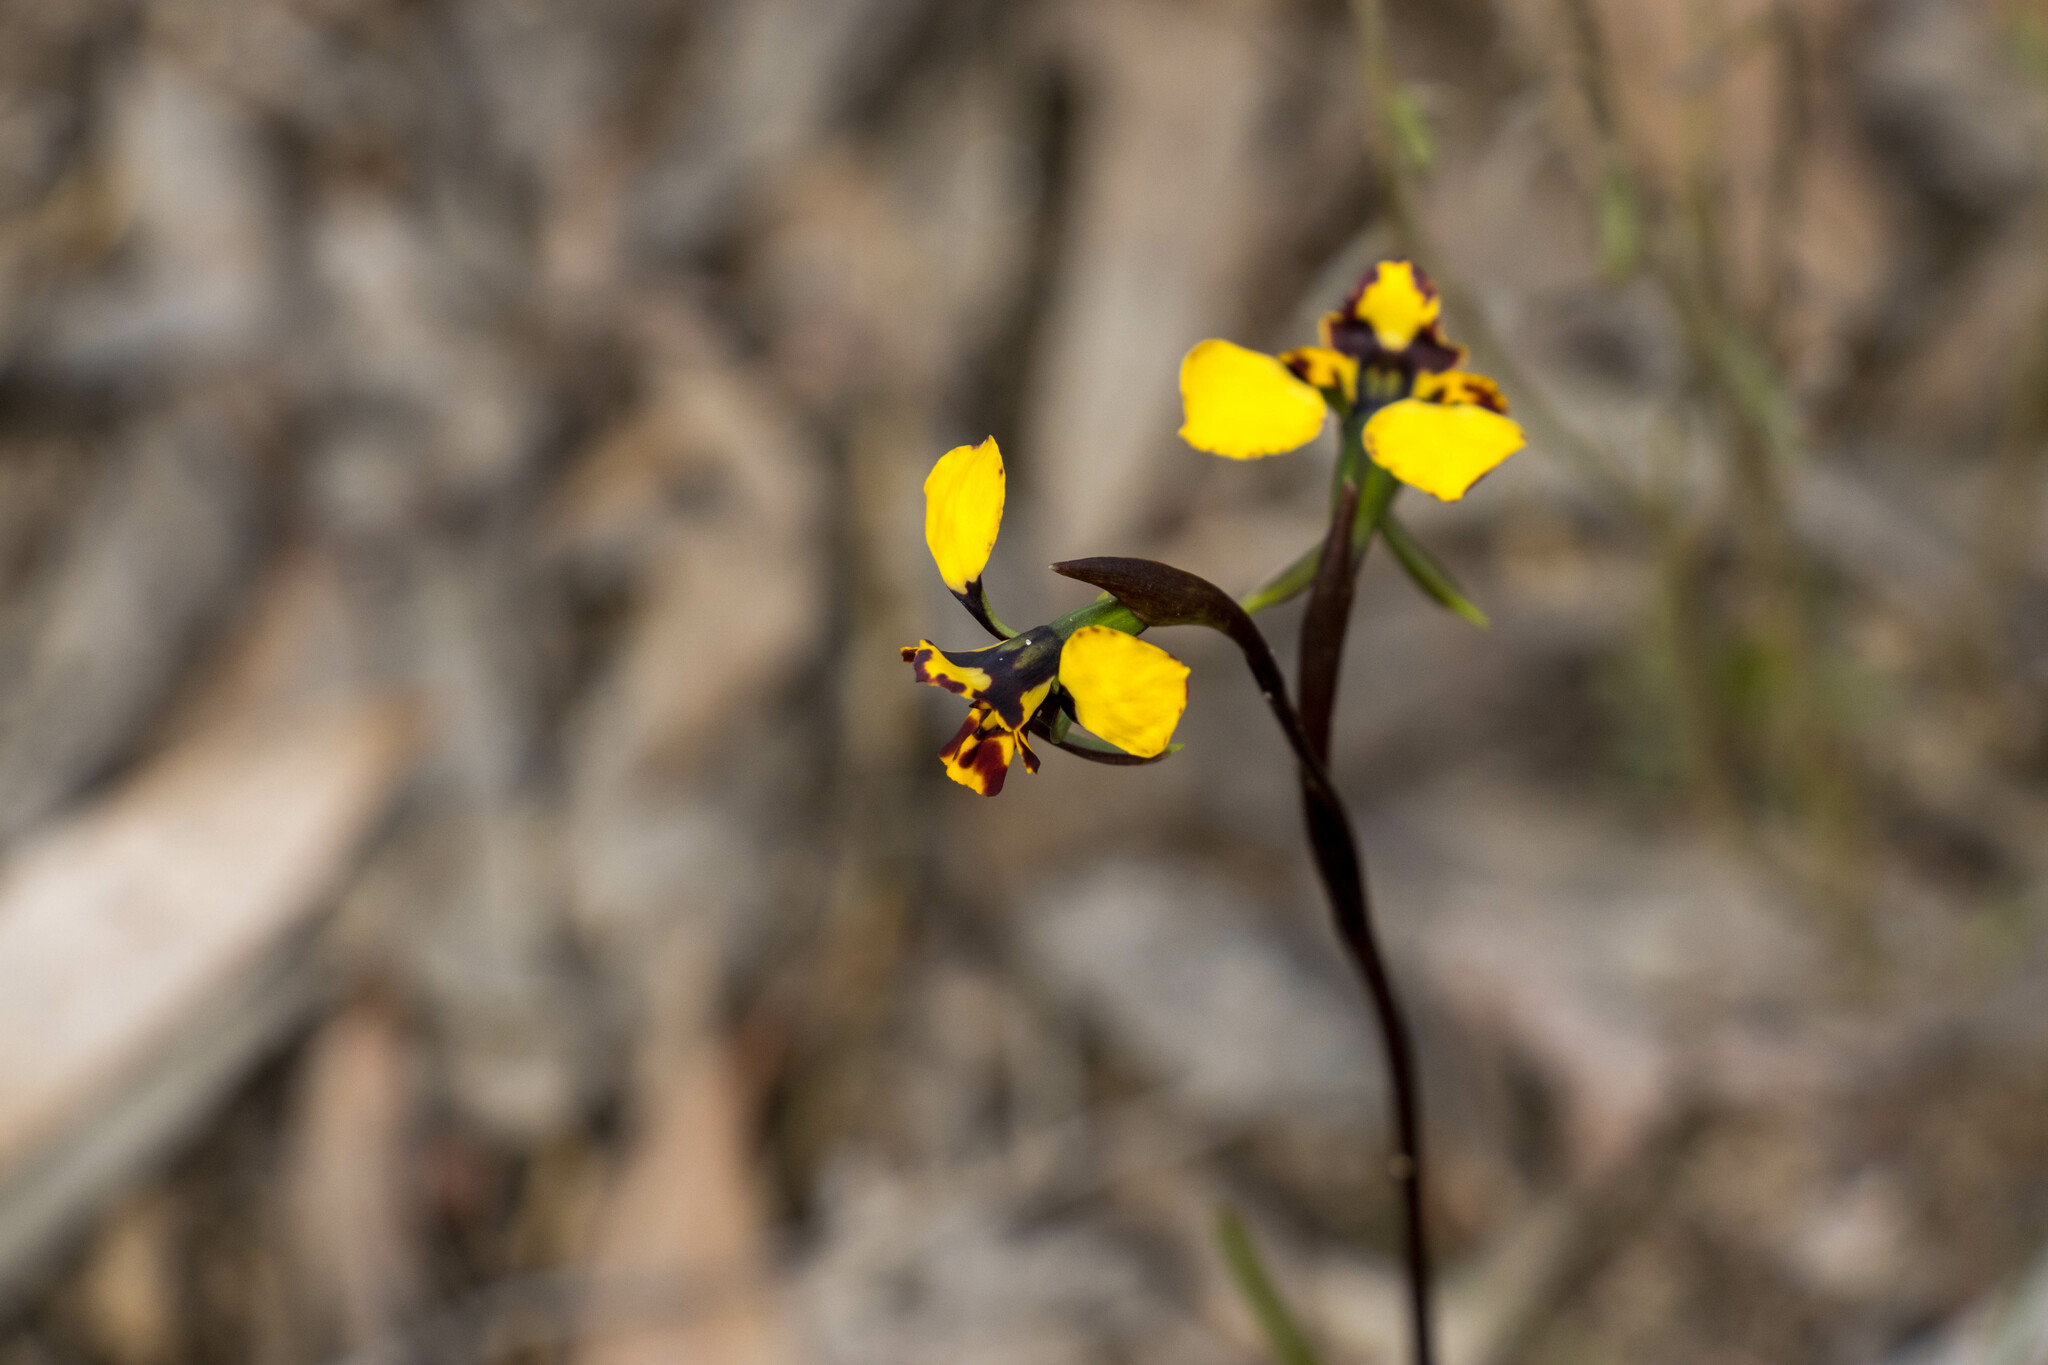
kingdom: Plantae
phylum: Tracheophyta
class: Liliopsida
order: Asparagales
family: Orchidaceae
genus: Diuris
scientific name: Diuris pardina
